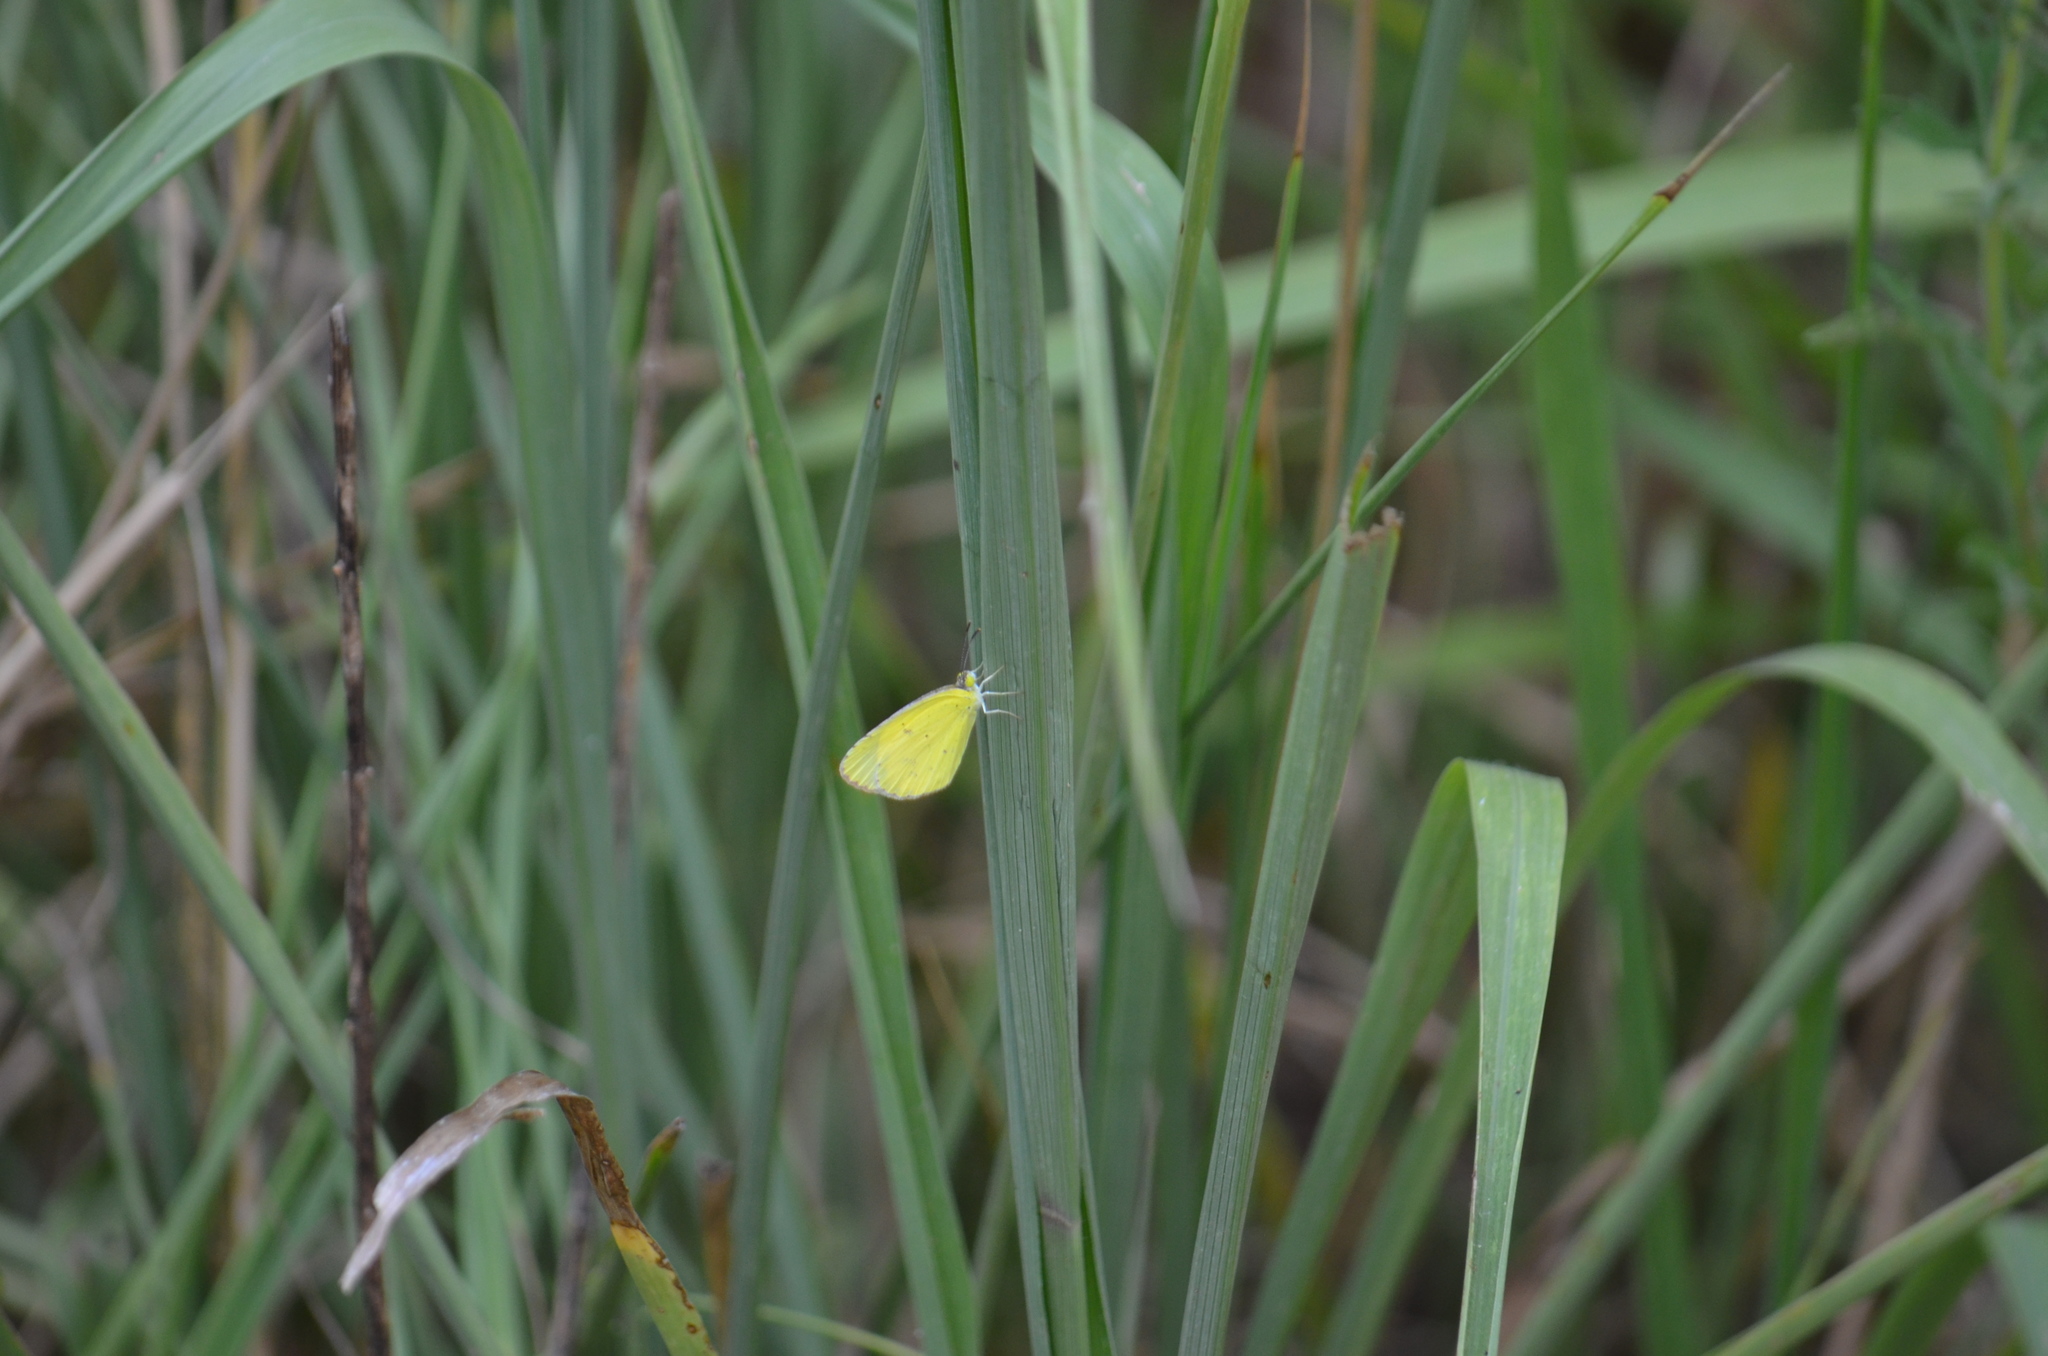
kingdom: Animalia
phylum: Arthropoda
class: Insecta
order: Lepidoptera
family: Pieridae
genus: Pyrisitia
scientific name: Pyrisitia lisa
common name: Little yellow
